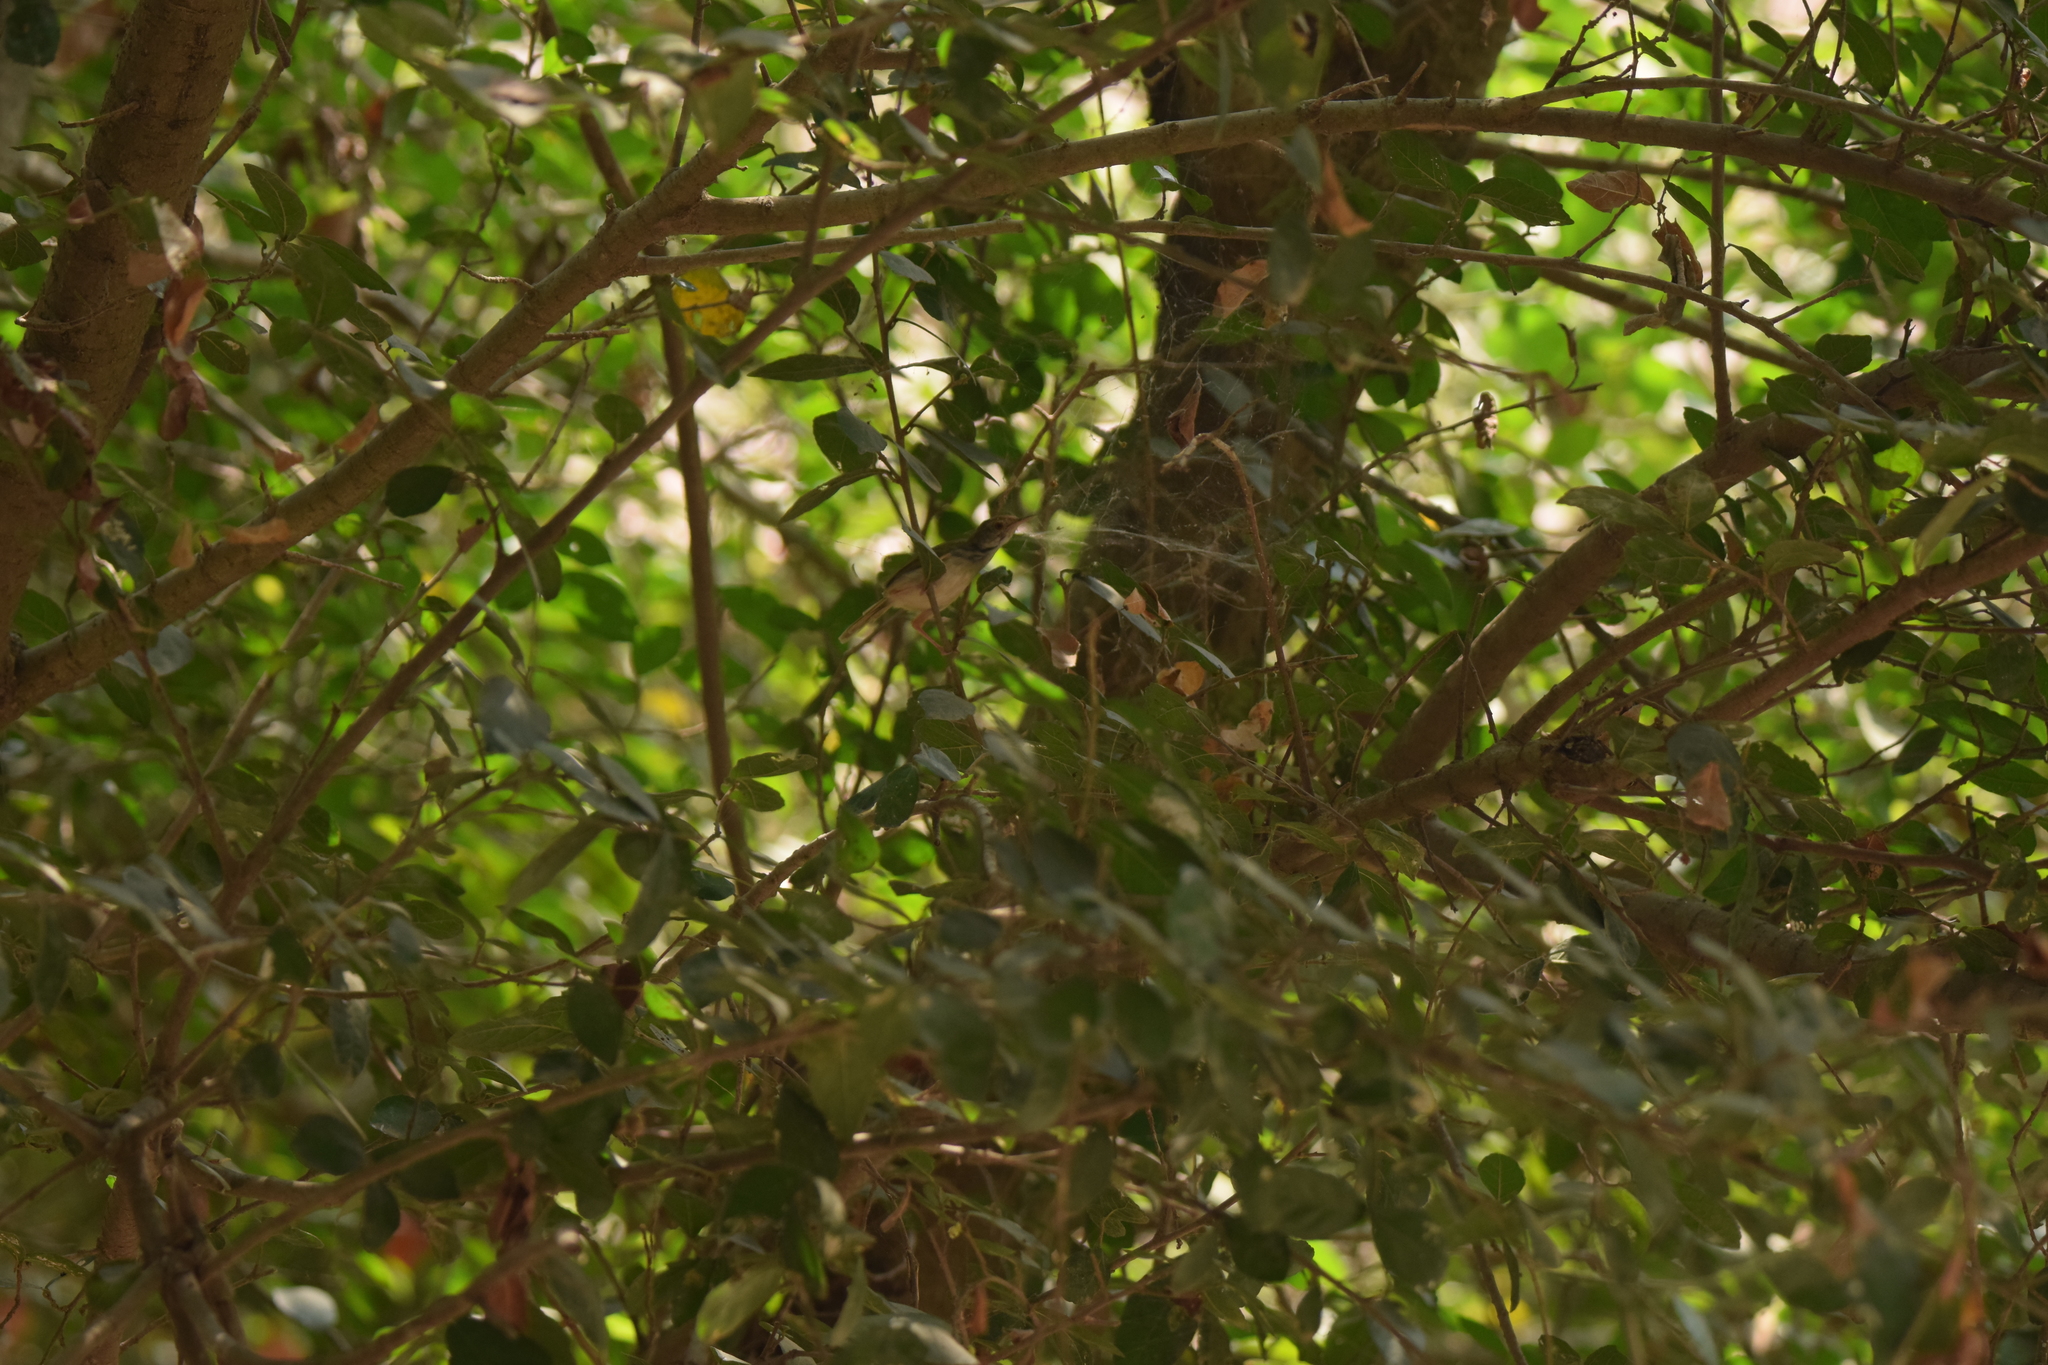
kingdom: Animalia
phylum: Chordata
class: Aves
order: Passeriformes
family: Cisticolidae
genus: Orthotomus
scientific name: Orthotomus sutorius
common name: Common tailorbird
